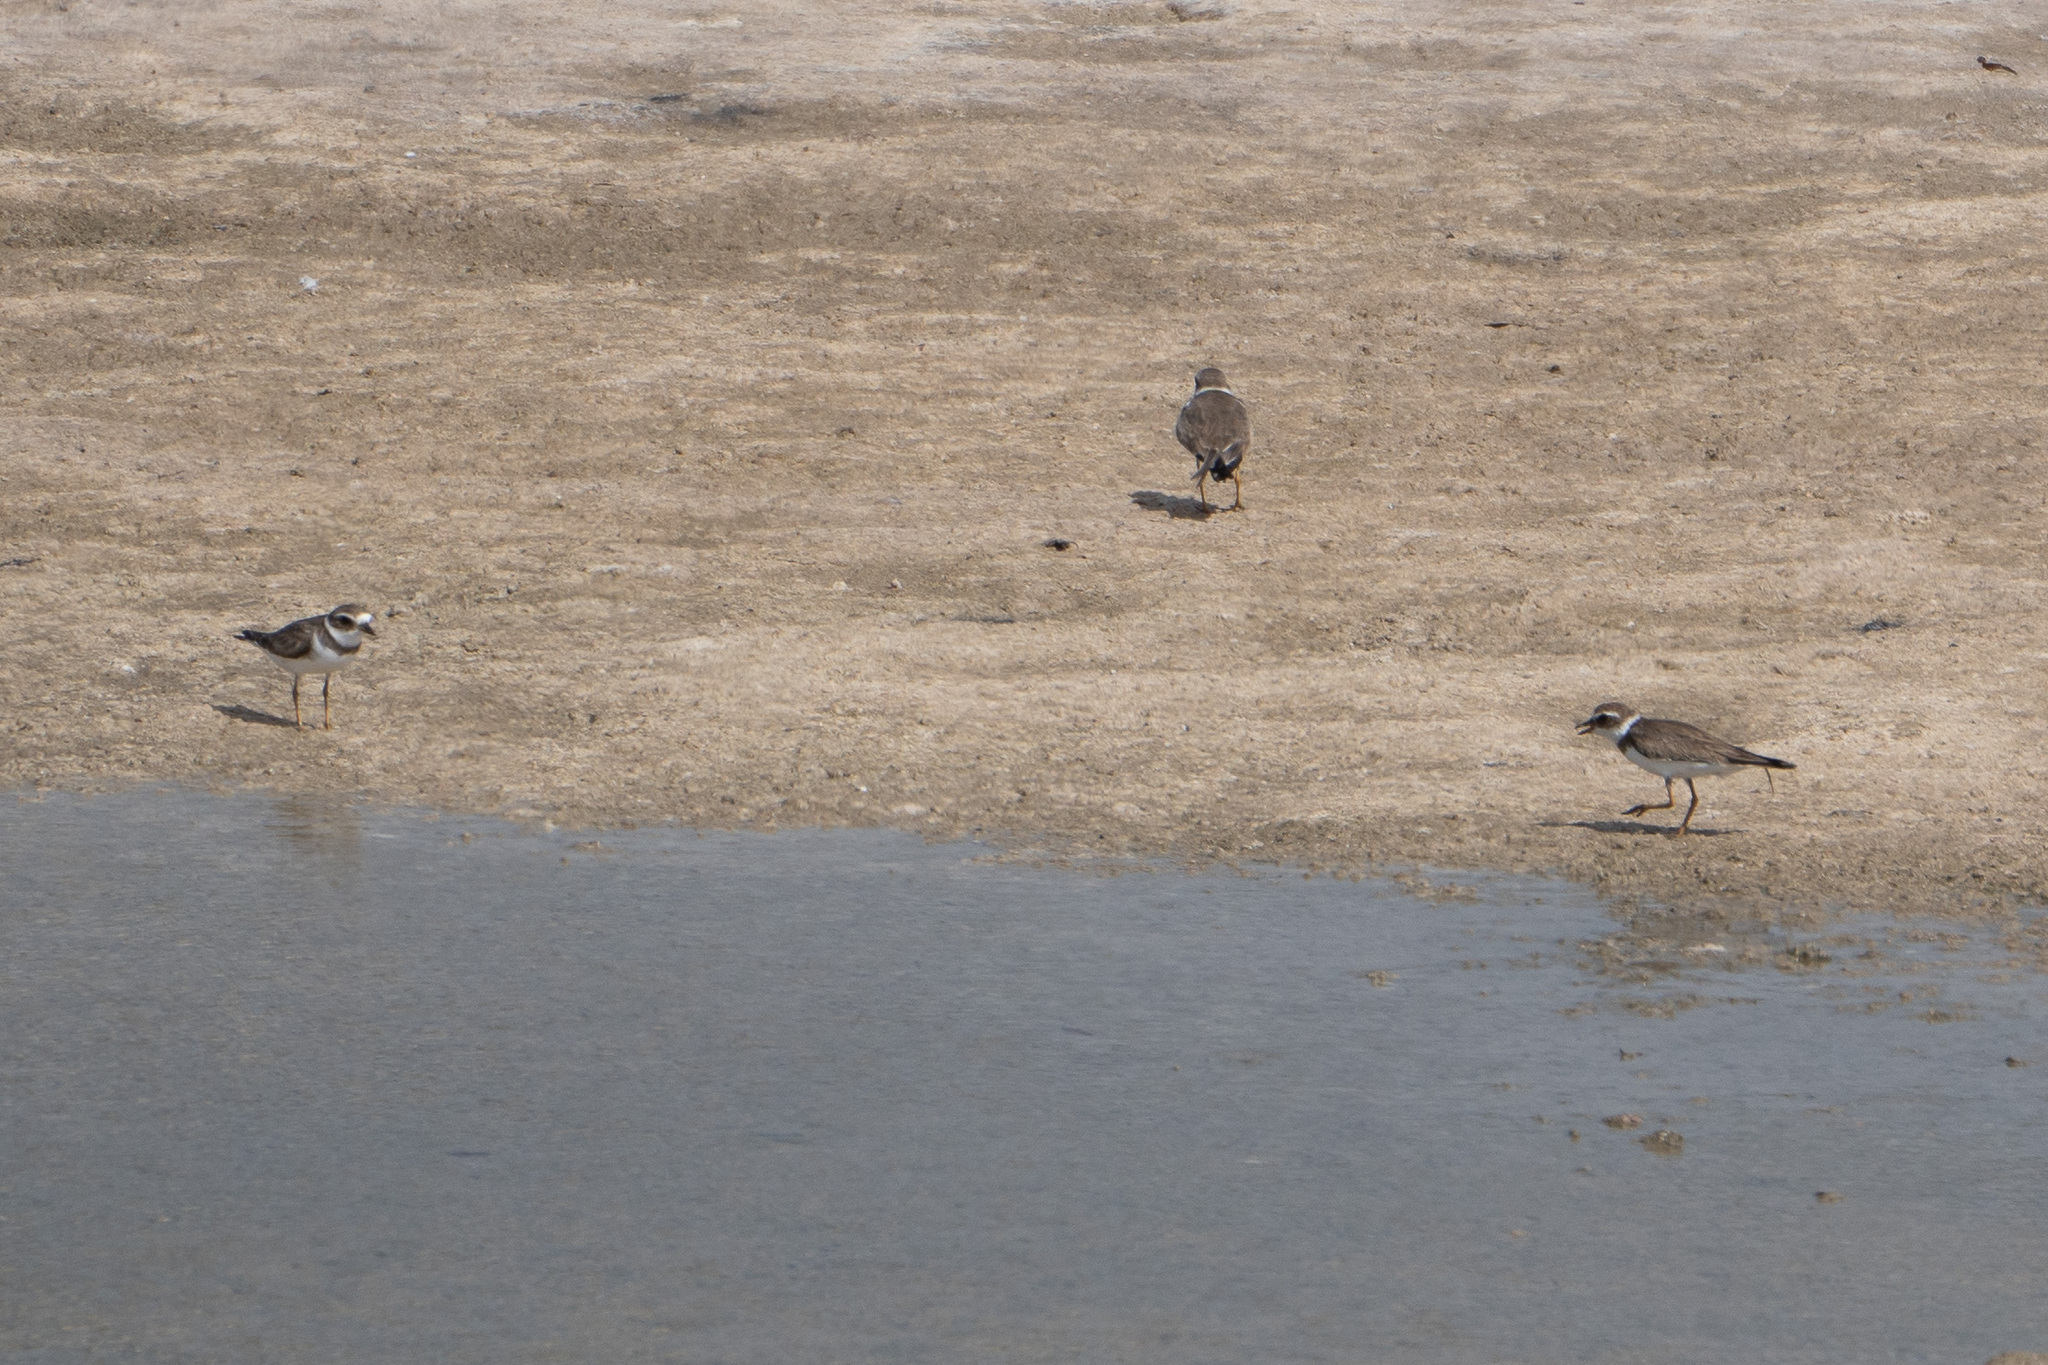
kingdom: Animalia
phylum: Chordata
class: Aves
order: Charadriiformes
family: Charadriidae
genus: Charadrius
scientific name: Charadrius semipalmatus
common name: Semipalmated plover
